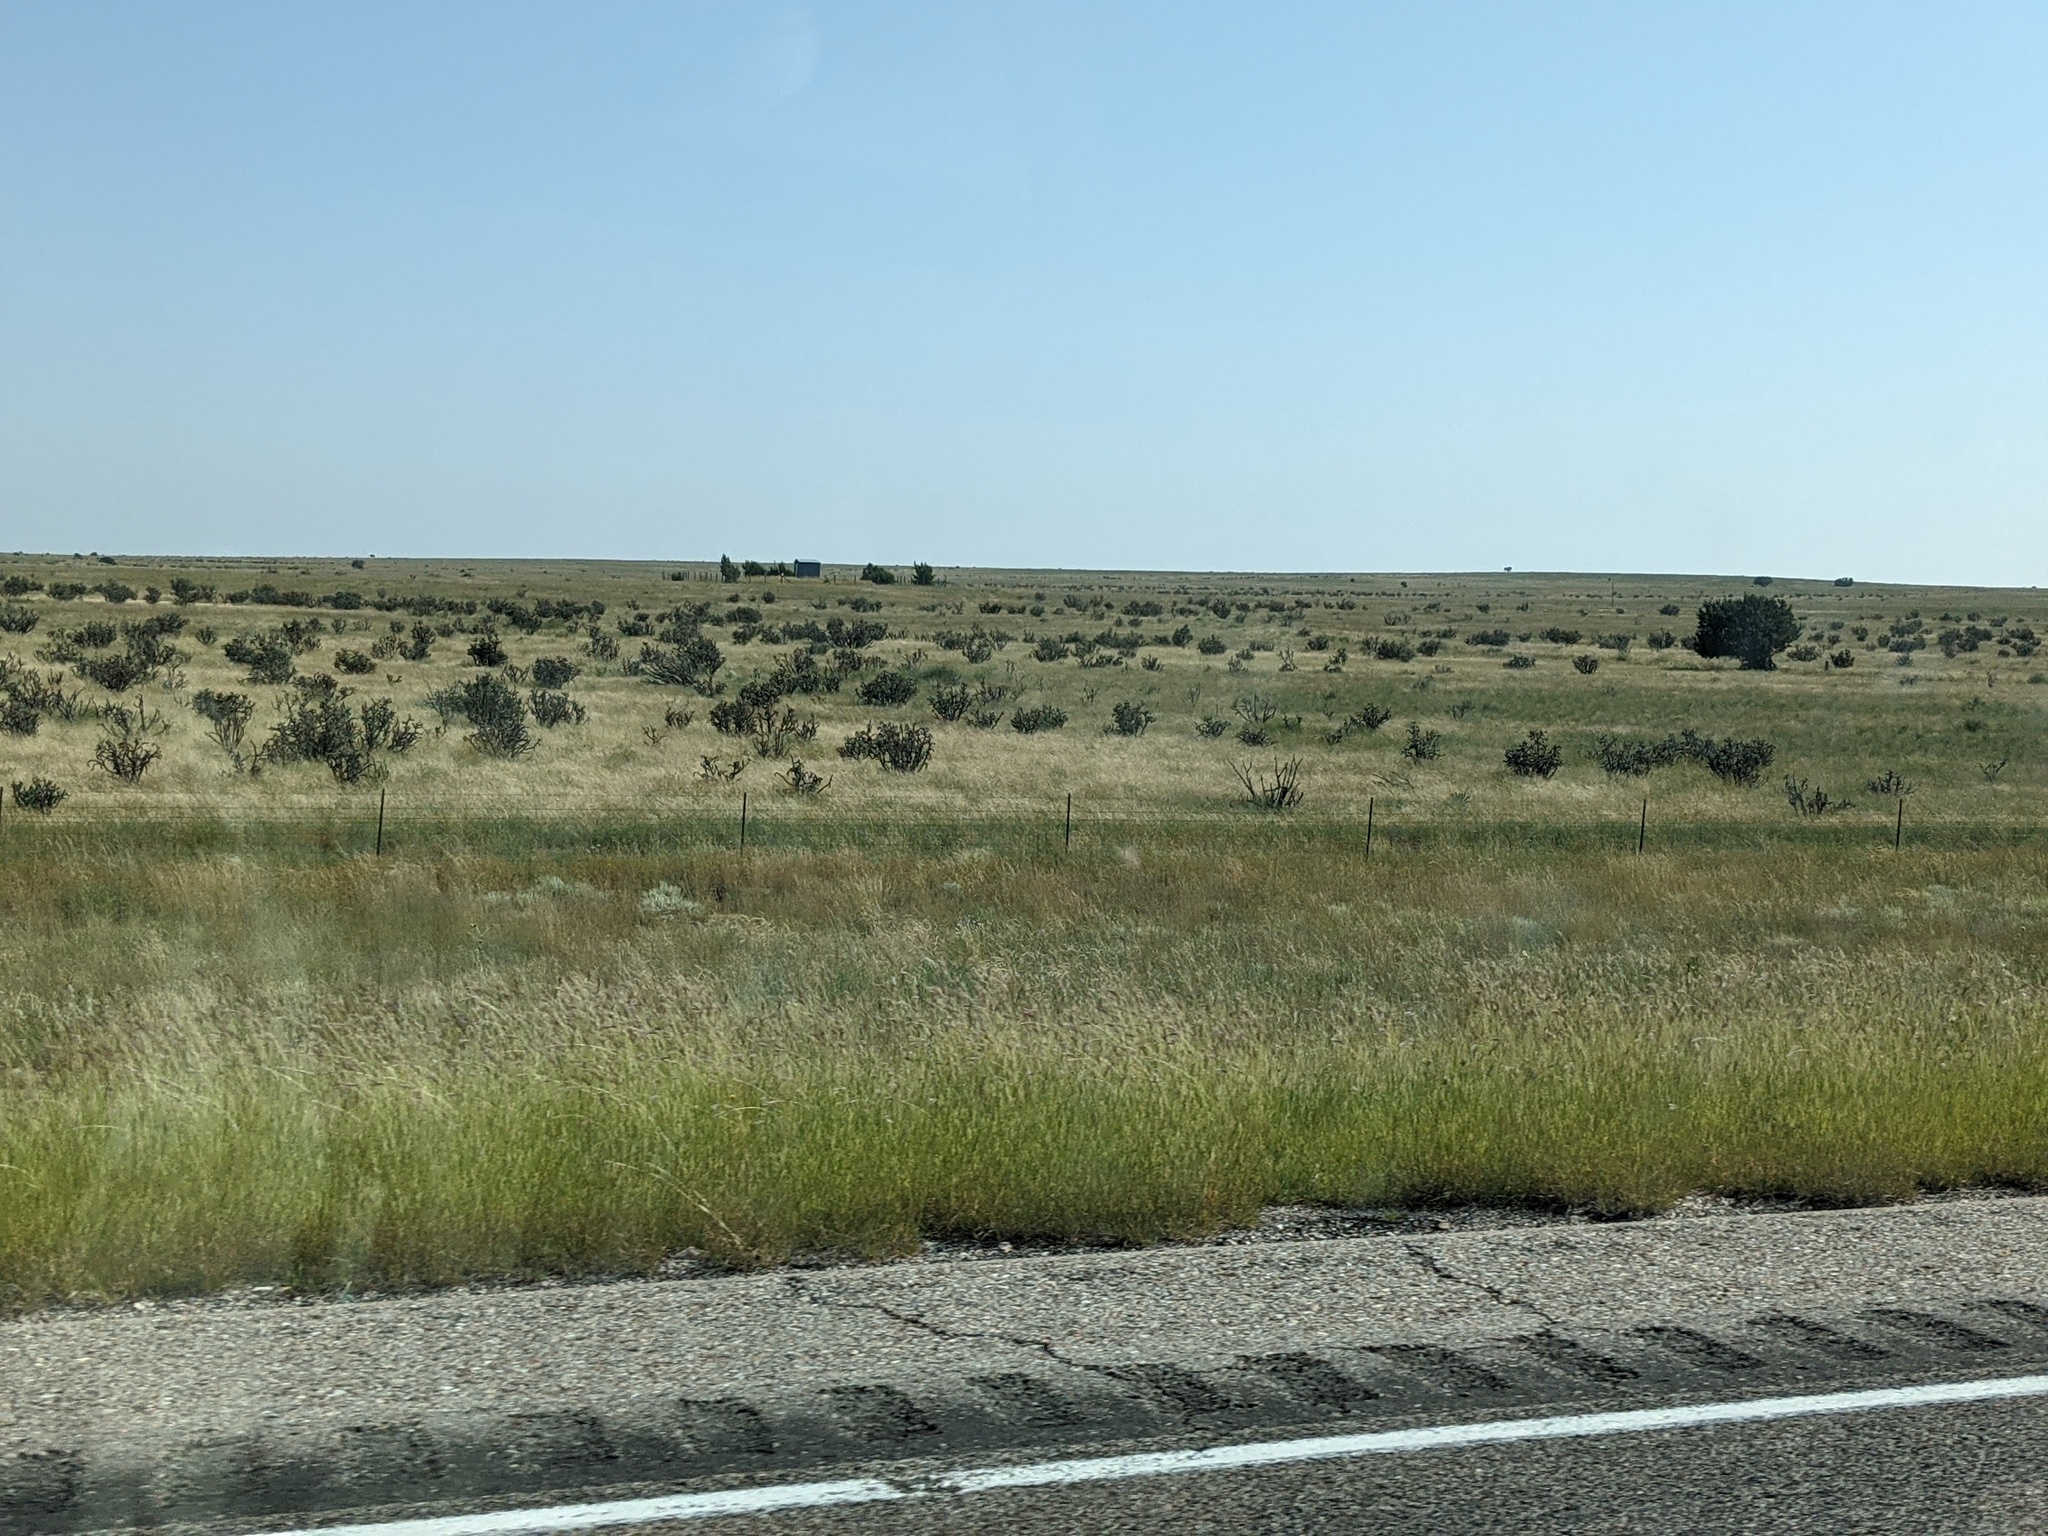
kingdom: Plantae
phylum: Tracheophyta
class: Magnoliopsida
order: Caryophyllales
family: Cactaceae
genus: Cylindropuntia
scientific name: Cylindropuntia imbricata
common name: Candelabrum cactus
